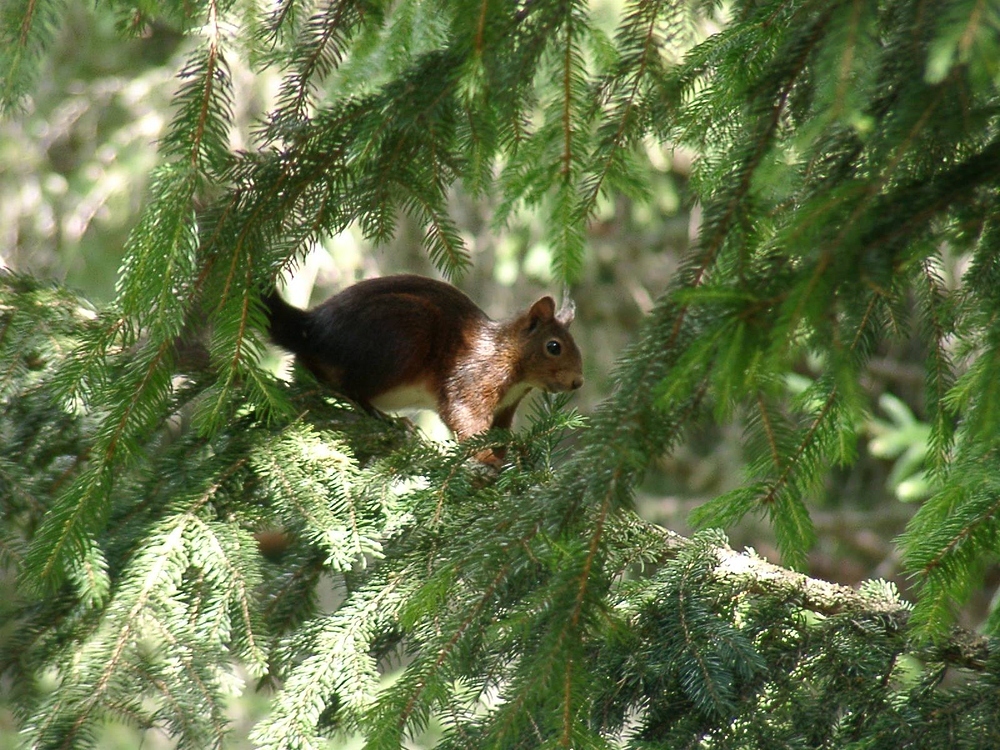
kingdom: Animalia
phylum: Chordata
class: Mammalia
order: Rodentia
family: Sciuridae
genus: Sciurus
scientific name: Sciurus vulgaris
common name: Eurasian red squirrel
